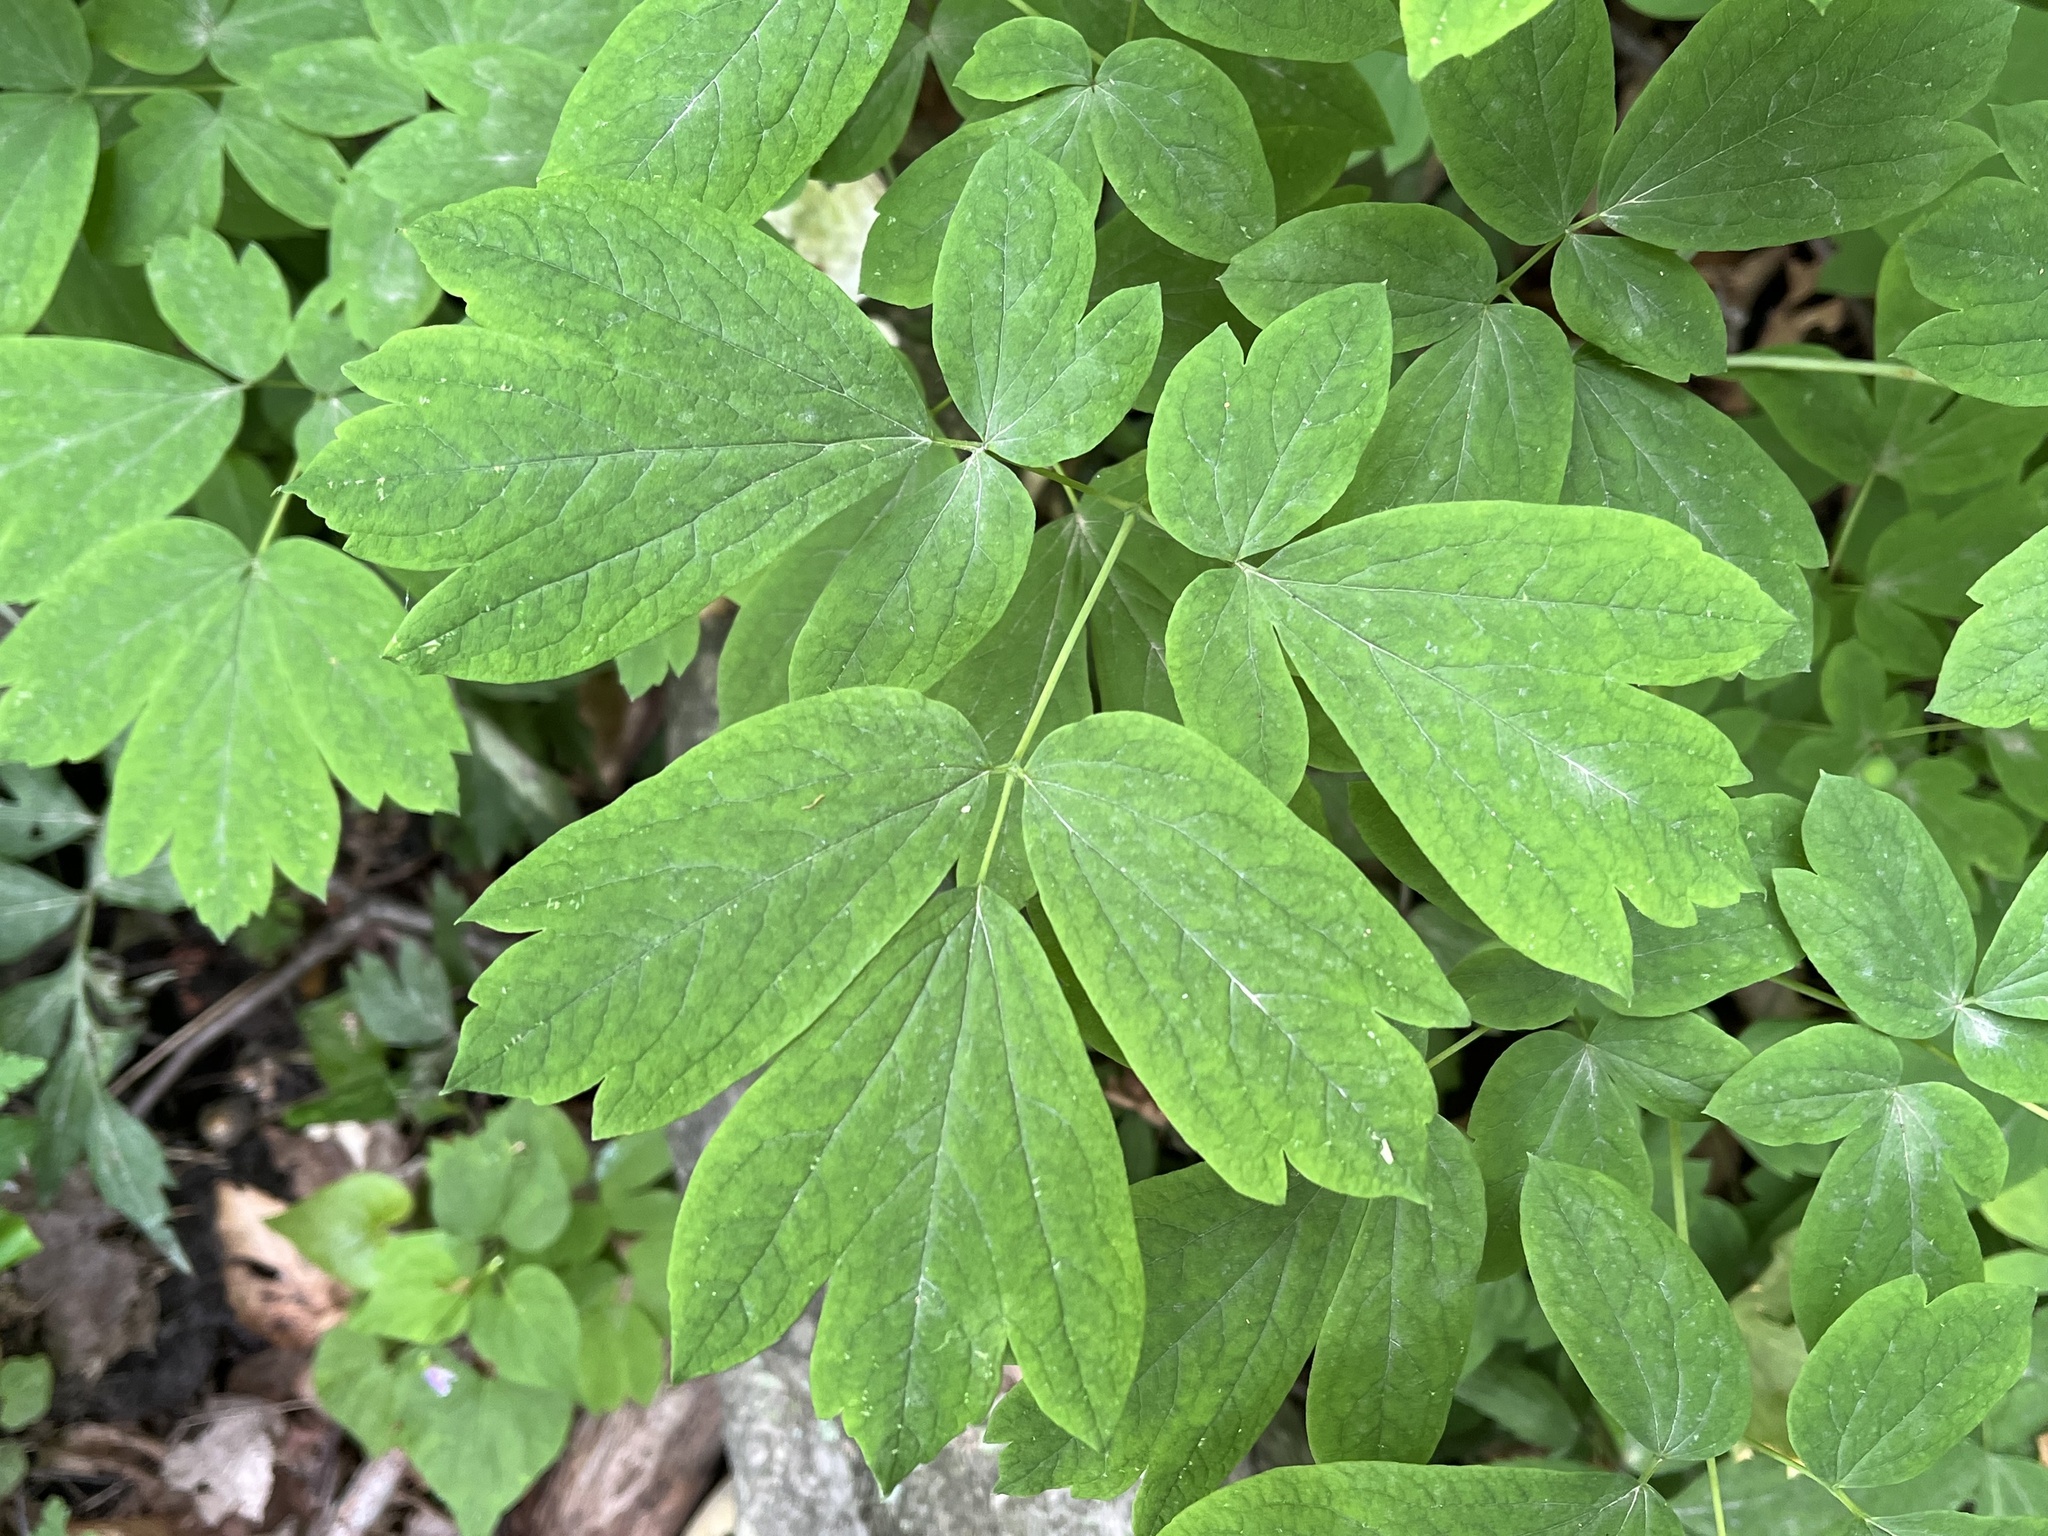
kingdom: Plantae
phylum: Tracheophyta
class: Magnoliopsida
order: Ranunculales
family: Berberidaceae
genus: Caulophyllum
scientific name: Caulophyllum thalictroides
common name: Blue cohosh
